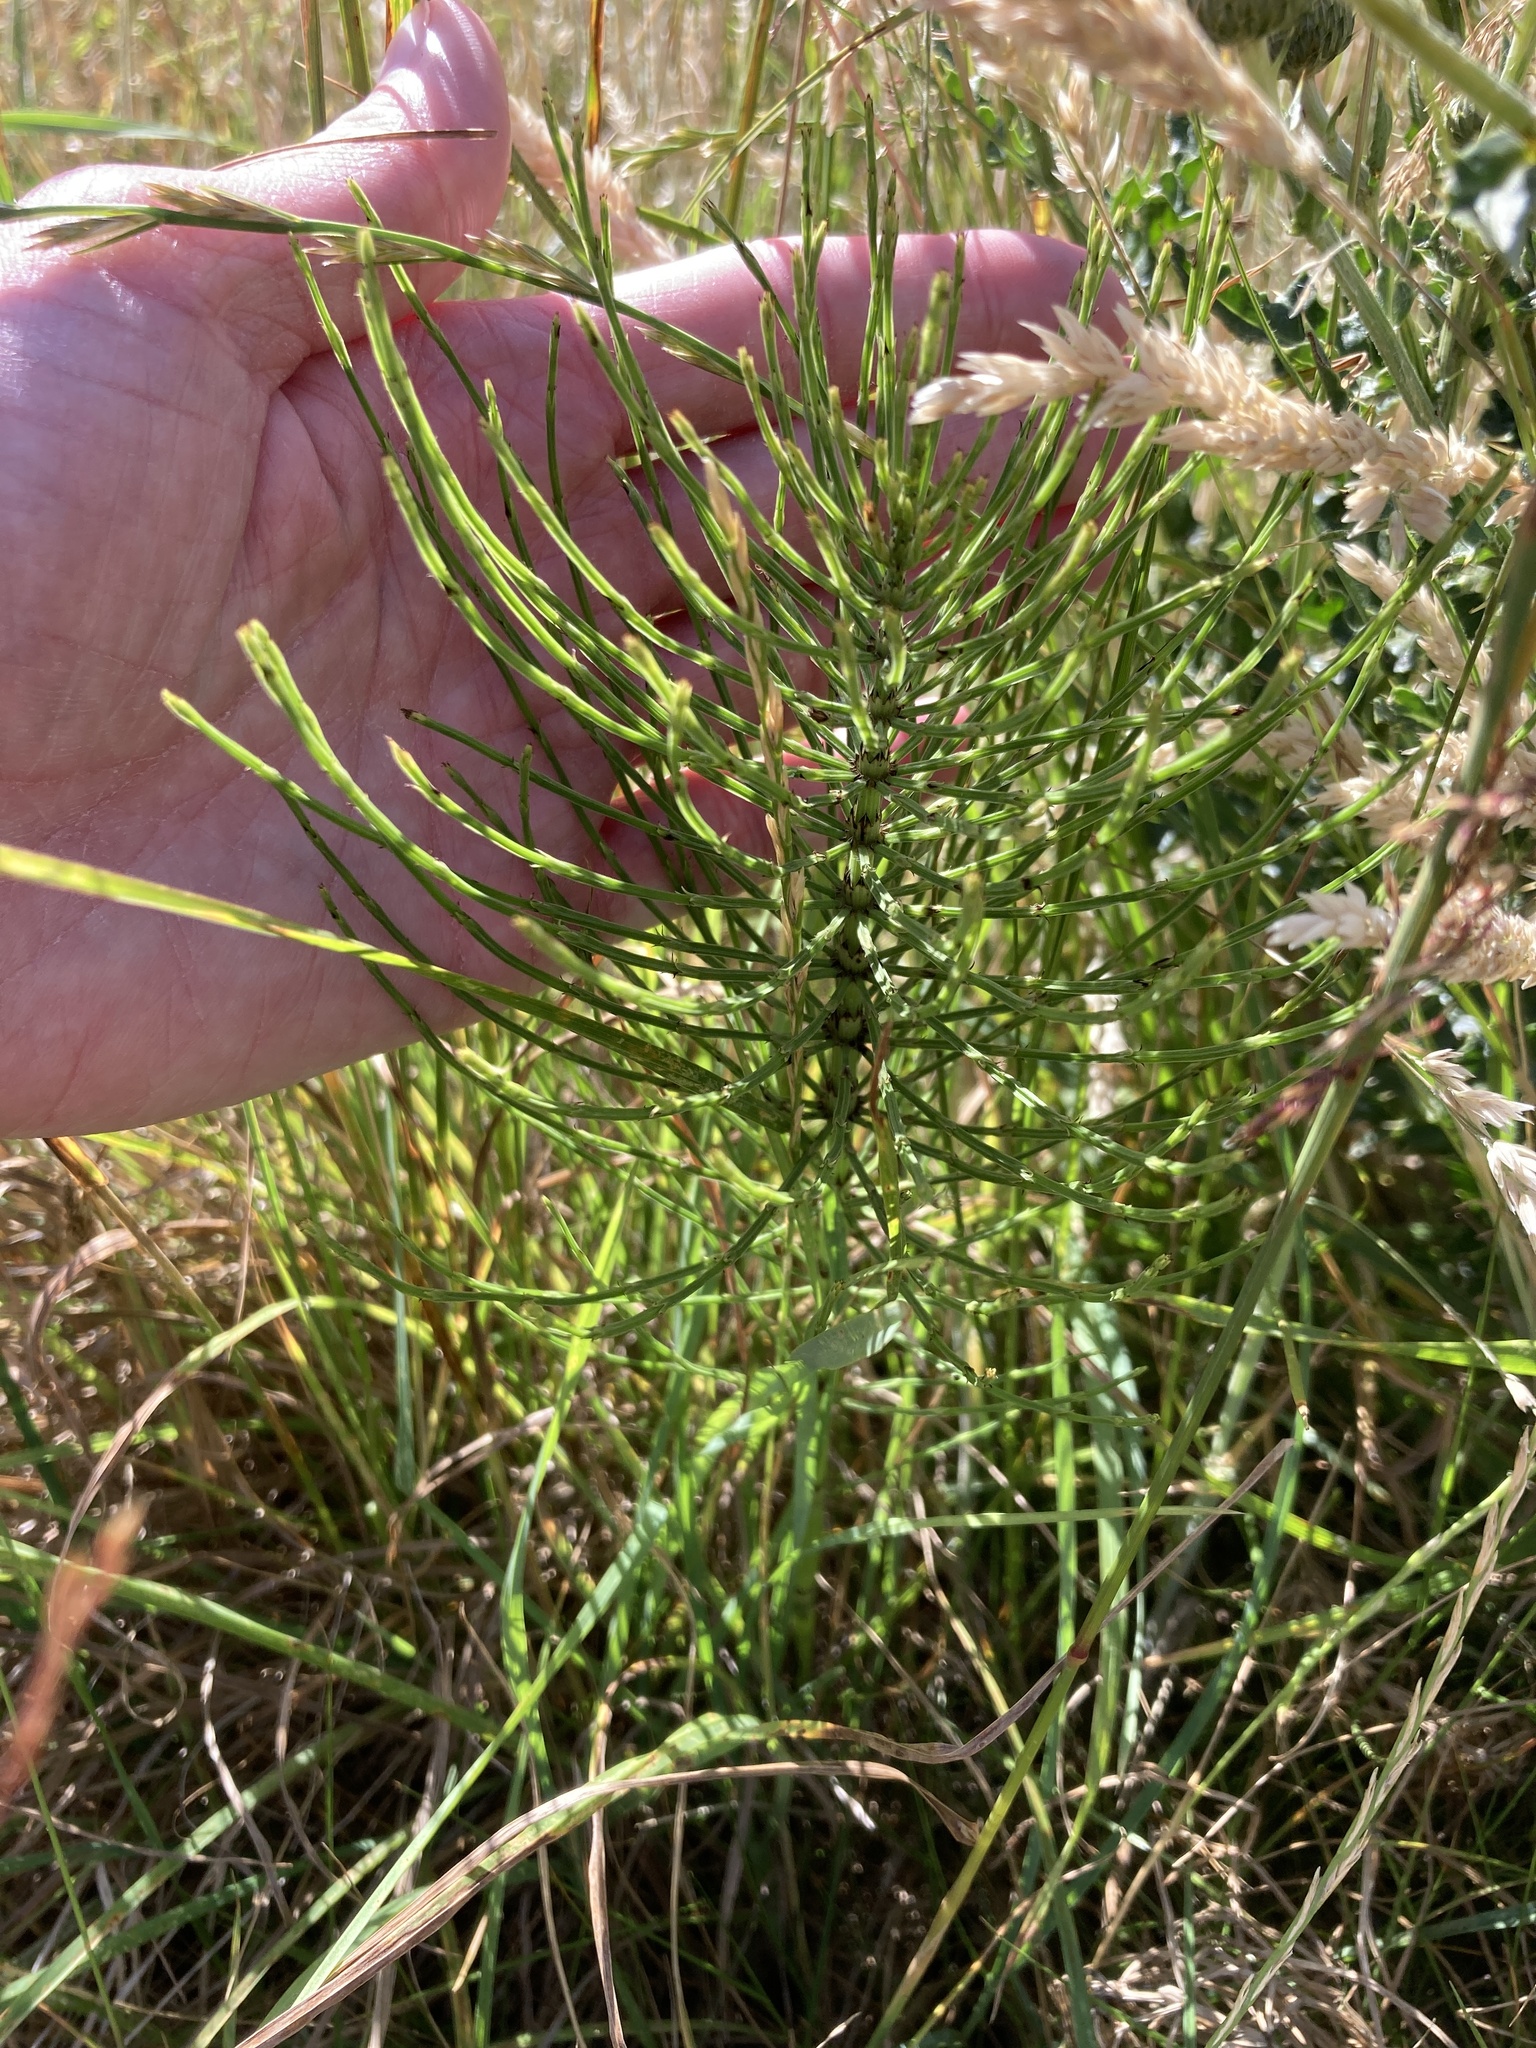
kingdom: Plantae
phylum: Tracheophyta
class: Polypodiopsida
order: Equisetales
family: Equisetaceae
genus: Equisetum
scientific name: Equisetum arvense
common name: Field horsetail
